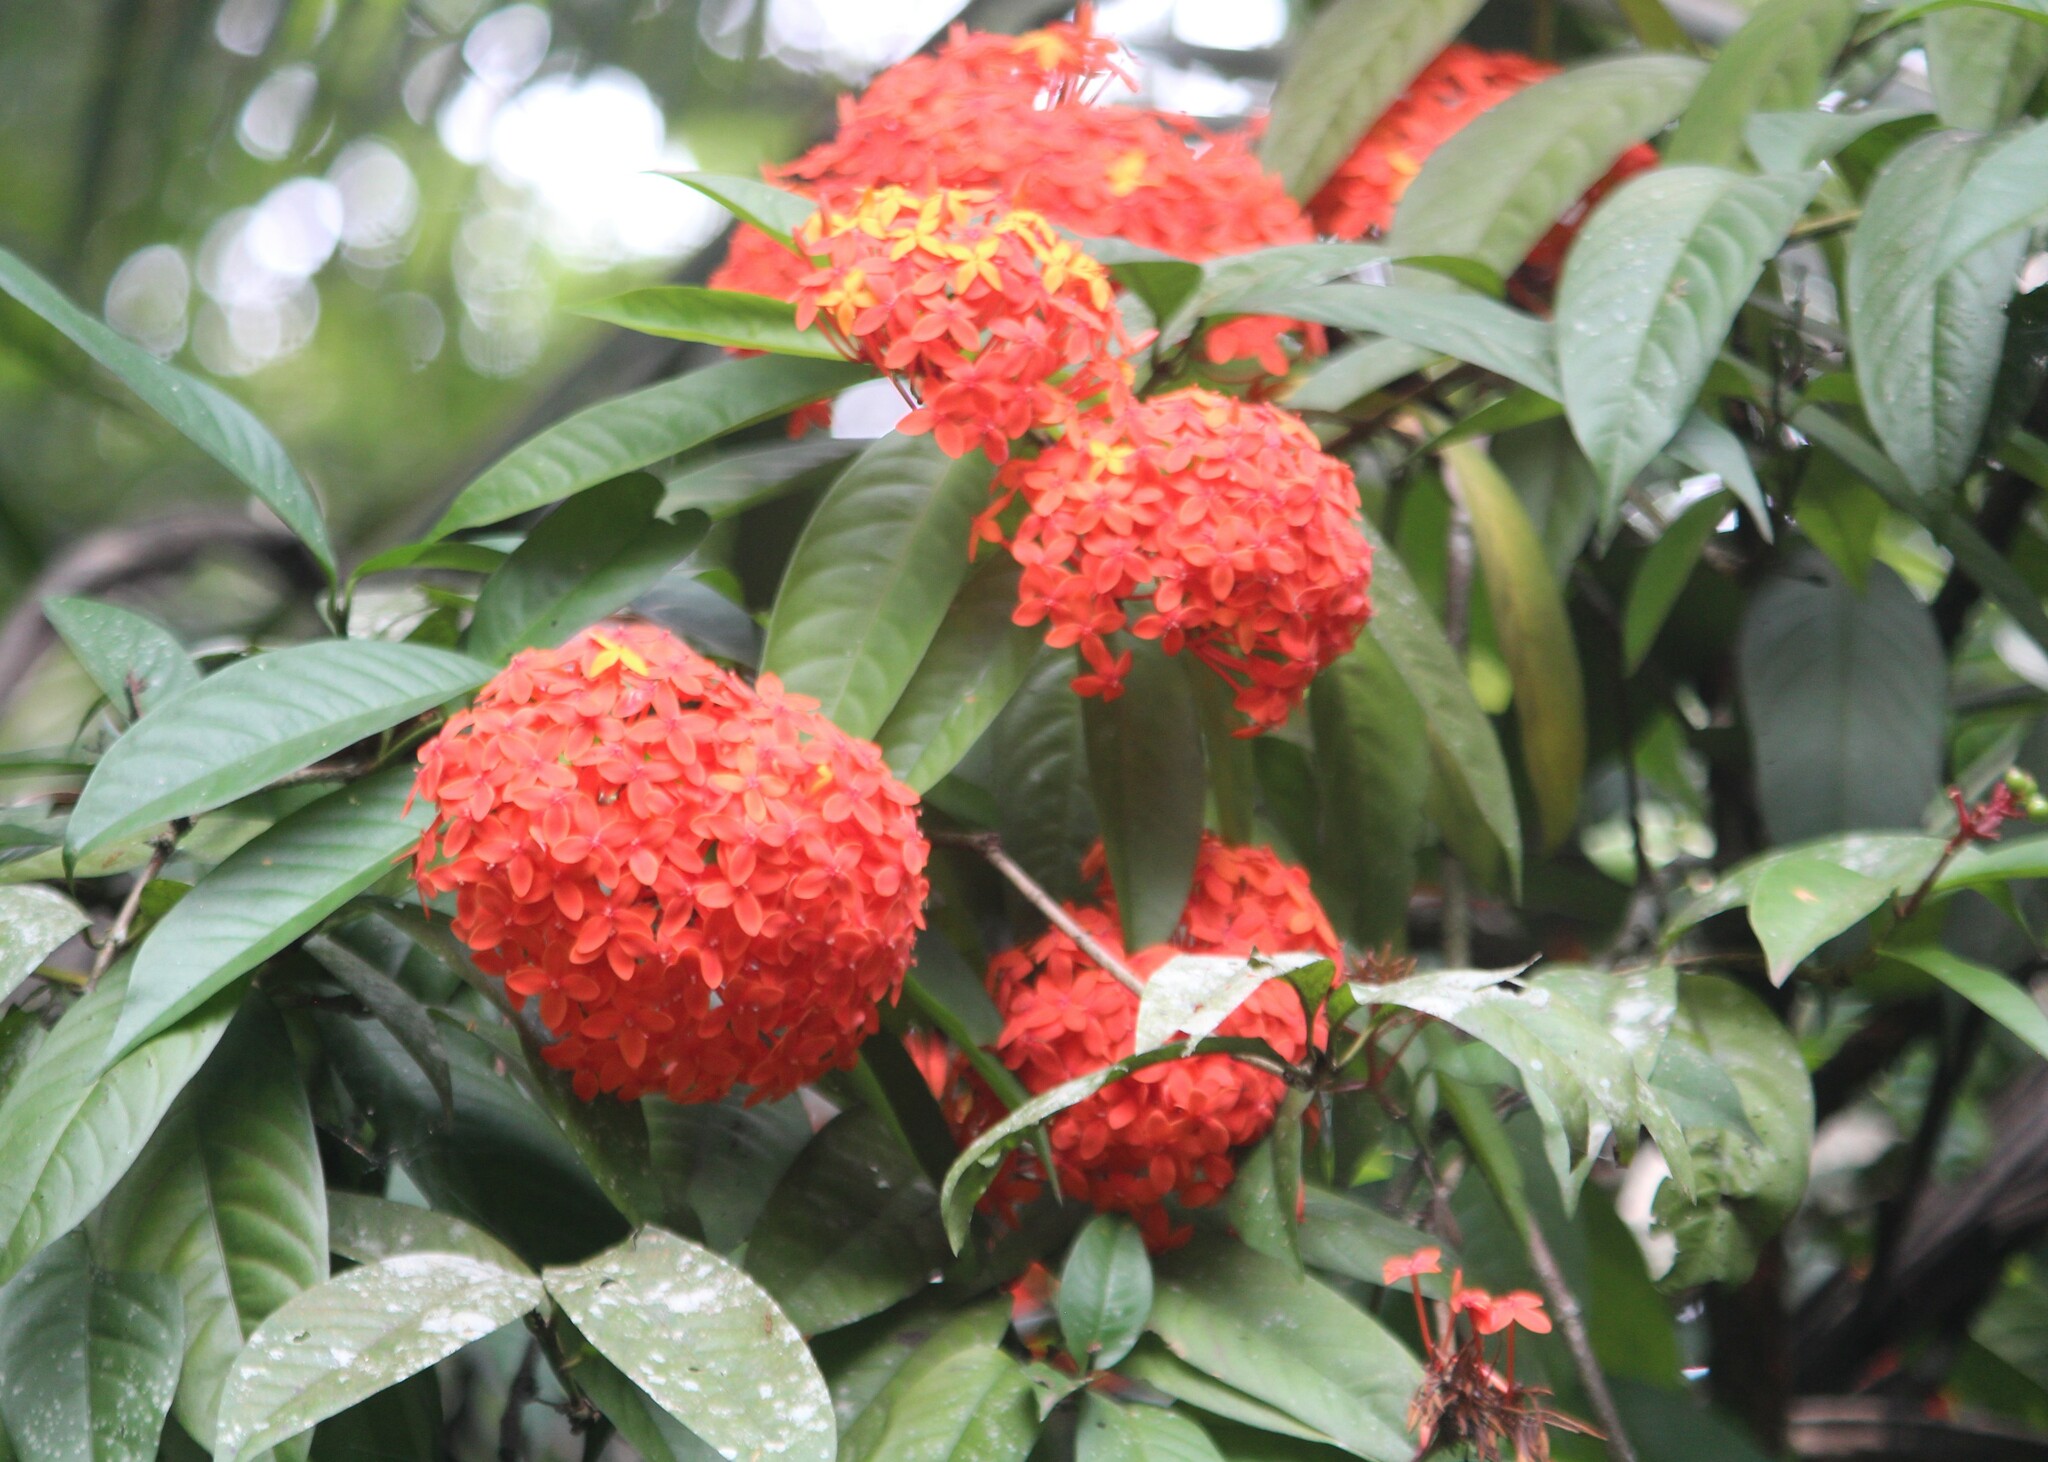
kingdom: Plantae
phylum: Tracheophyta
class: Magnoliopsida
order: Gentianales
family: Rubiaceae
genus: Ixora
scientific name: Ixora coccinea
